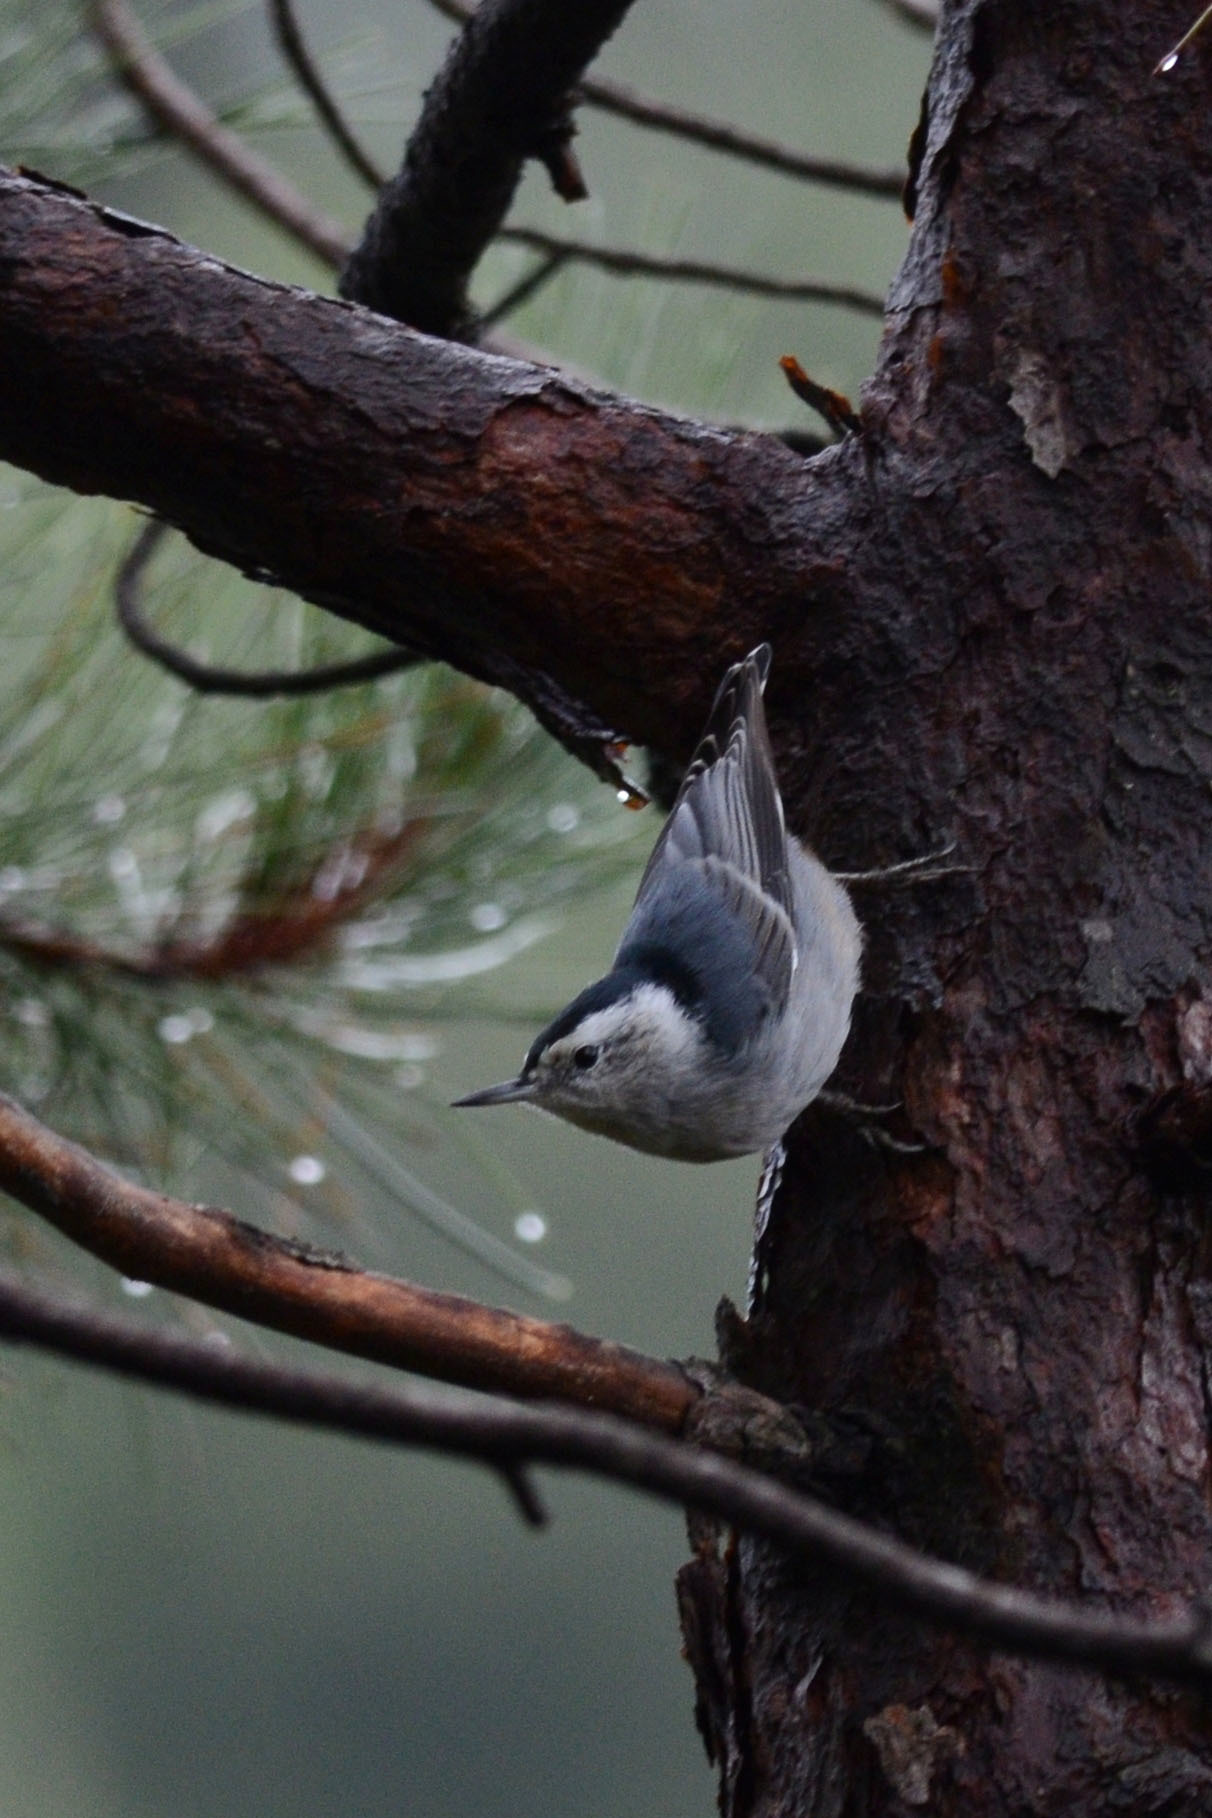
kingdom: Animalia
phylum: Chordata
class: Aves
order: Passeriformes
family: Sittidae
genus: Sitta
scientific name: Sitta carolinensis
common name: White-breasted nuthatch
